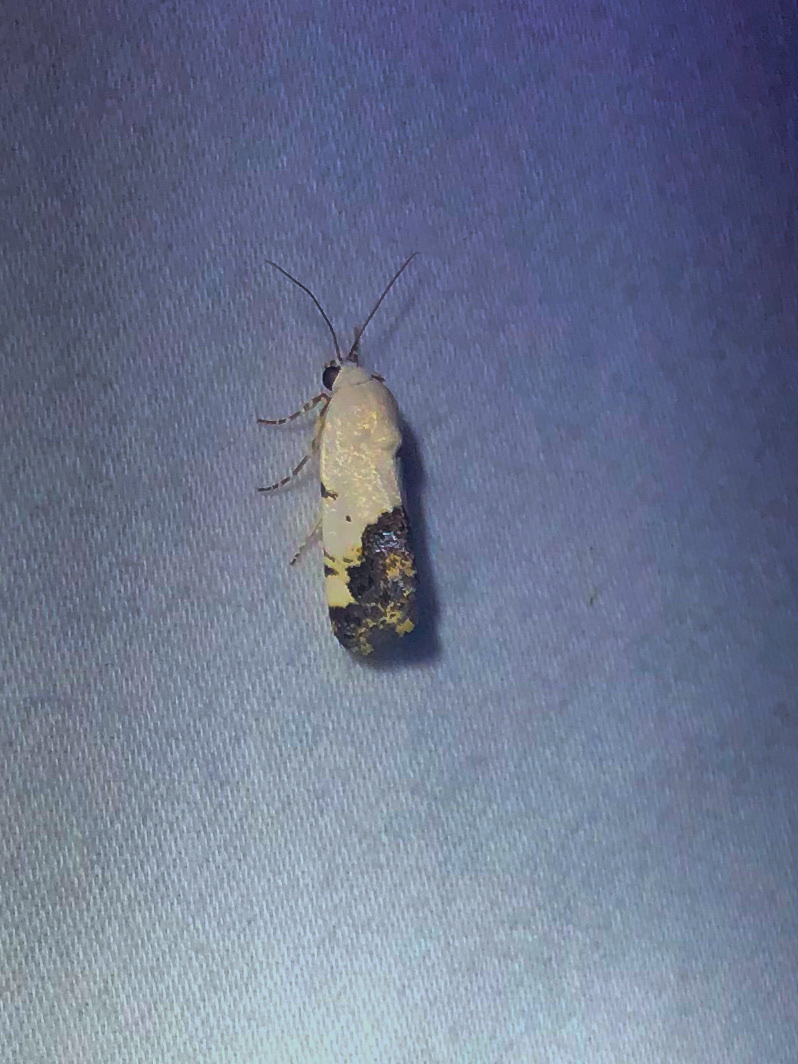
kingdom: Animalia
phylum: Arthropoda
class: Insecta
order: Lepidoptera
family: Noctuidae
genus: Acontia
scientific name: Acontia aprica
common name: Nun
